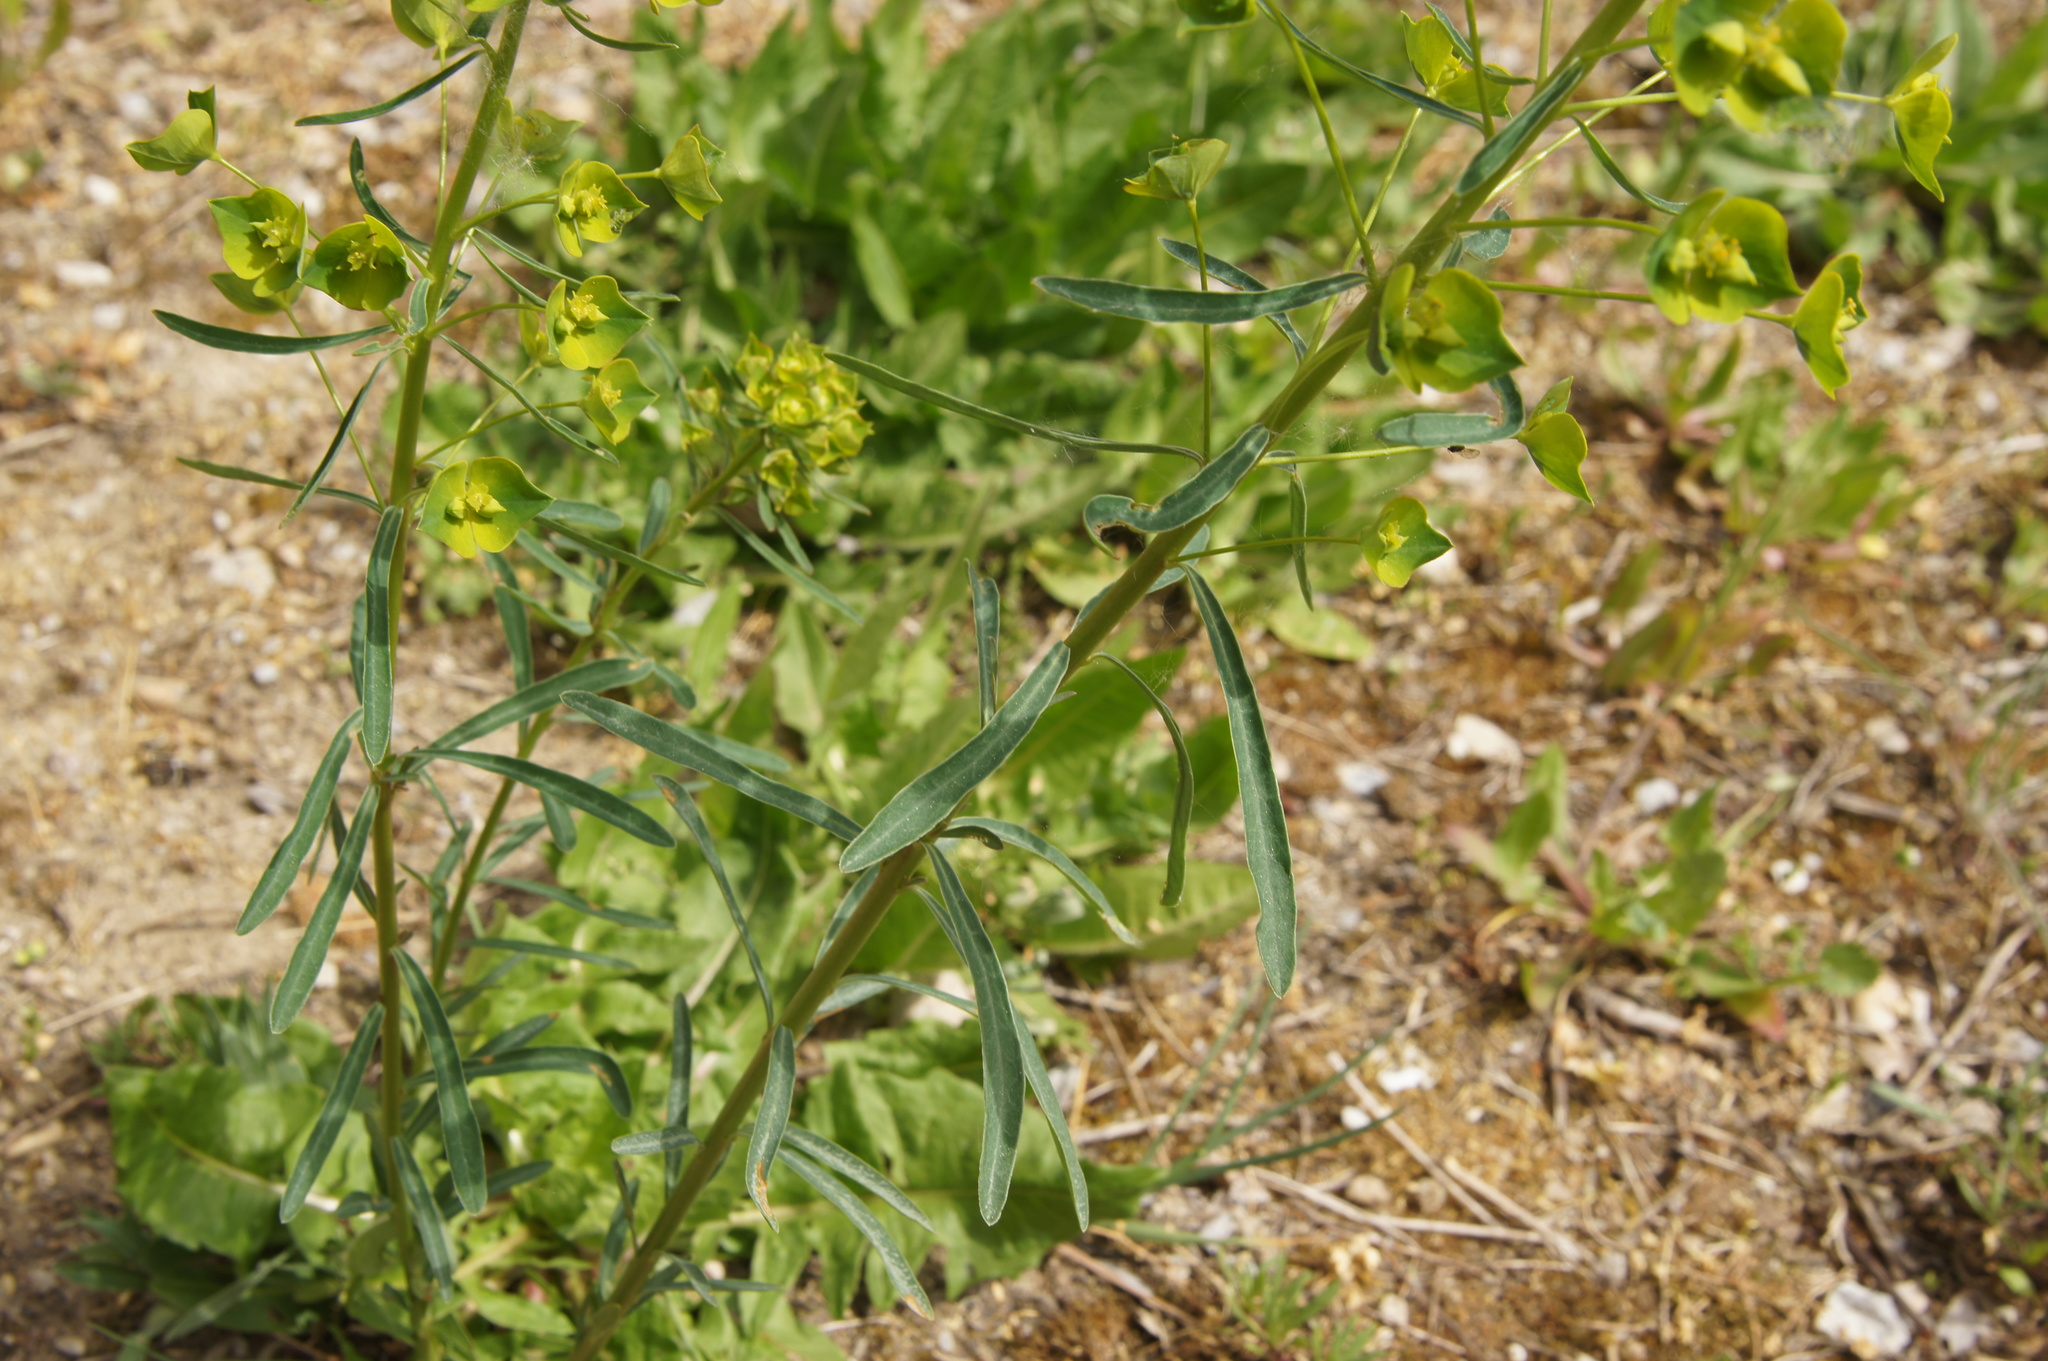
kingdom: Plantae
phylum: Tracheophyta
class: Magnoliopsida
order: Malpighiales
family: Euphorbiaceae
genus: Euphorbia
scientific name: Euphorbia esula
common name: Leafy spurge
